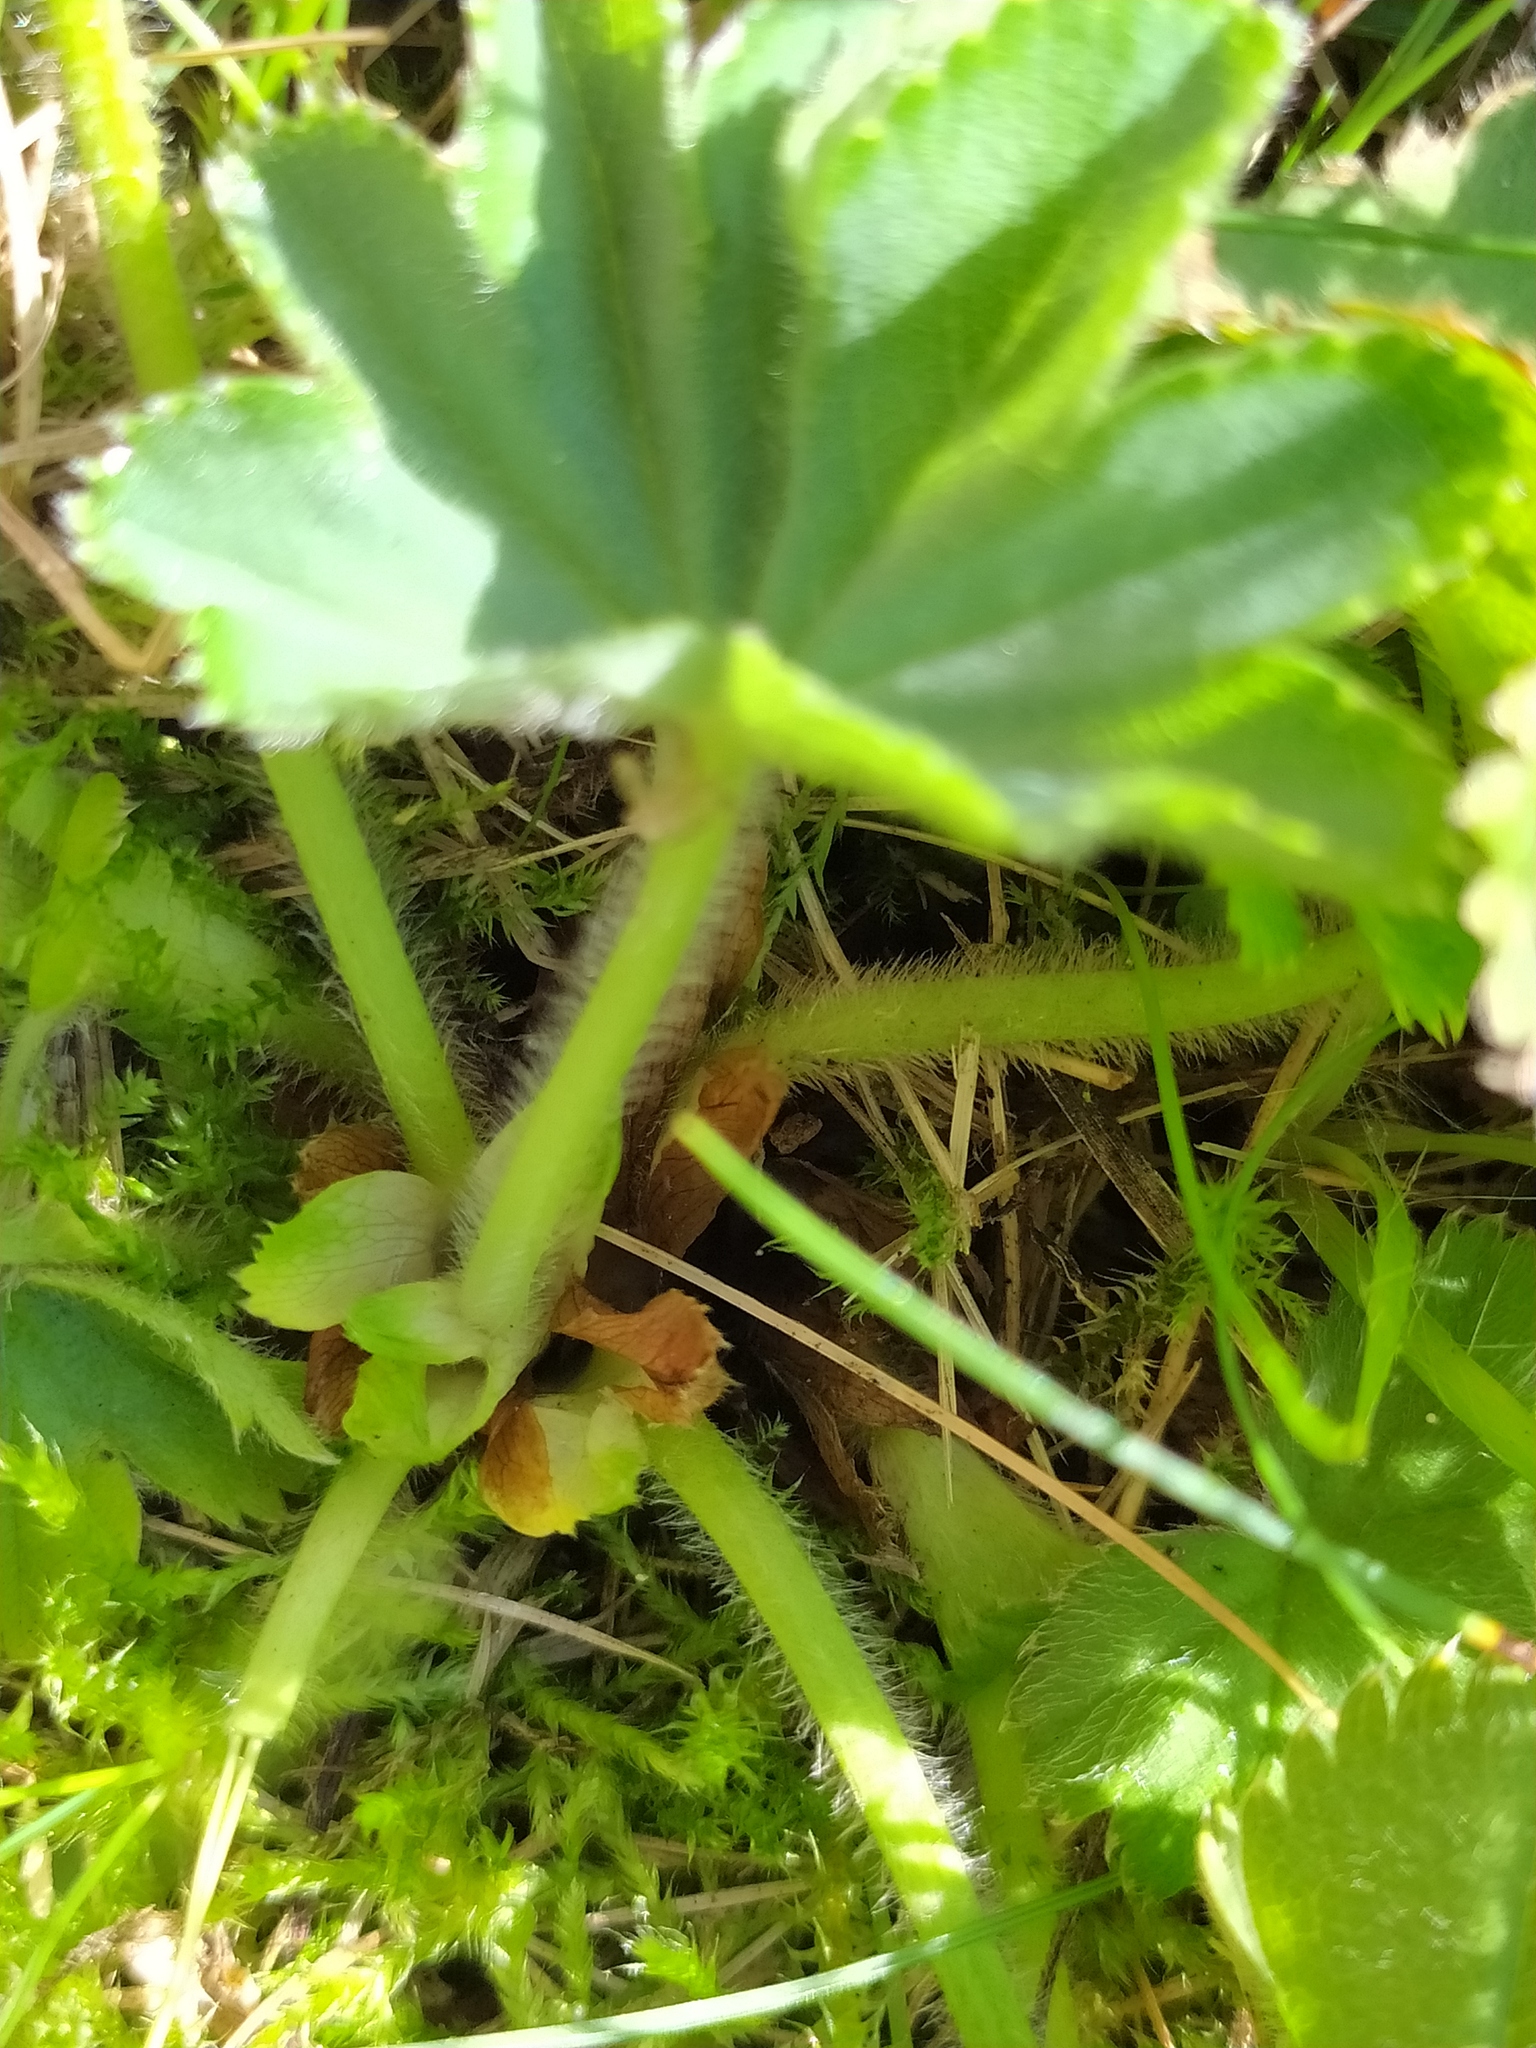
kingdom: Plantae
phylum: Tracheophyta
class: Magnoliopsida
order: Rosales
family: Rosaceae
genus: Alchemilla
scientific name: Alchemilla monticola
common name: Hairy lady's mantle
